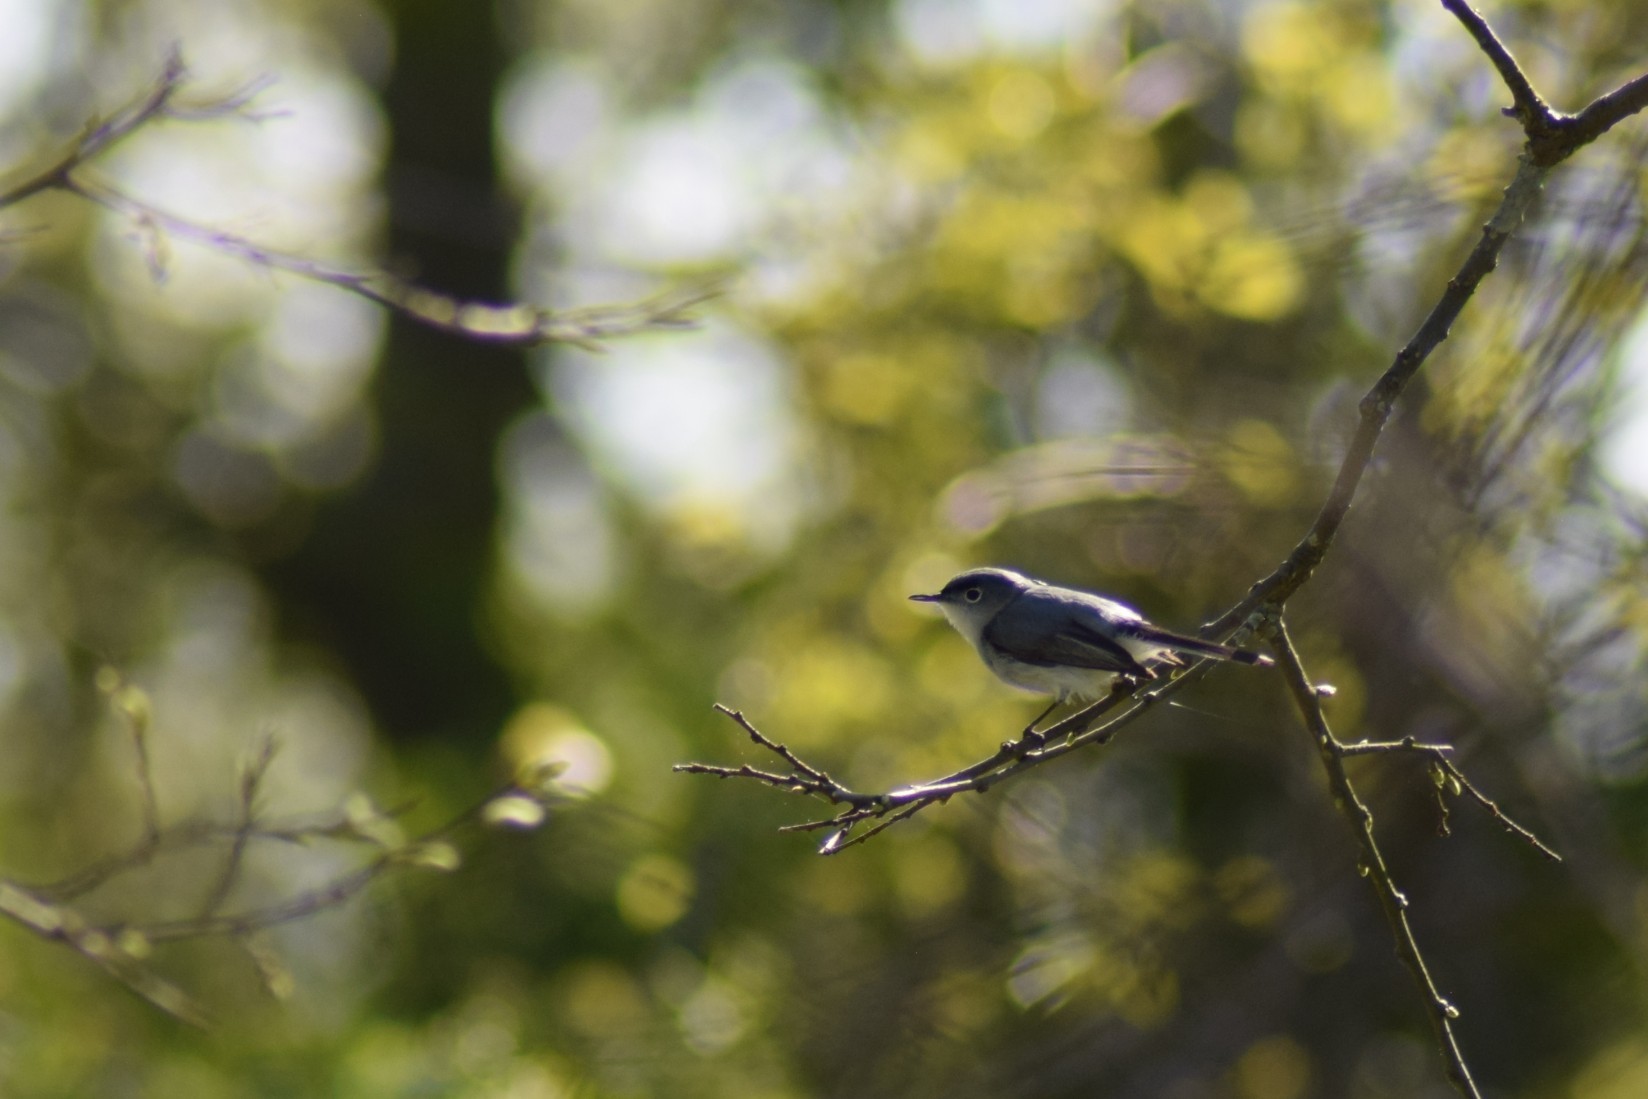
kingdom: Animalia
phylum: Chordata
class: Aves
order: Passeriformes
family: Polioptilidae
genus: Polioptila
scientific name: Polioptila caerulea
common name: Blue-gray gnatcatcher
